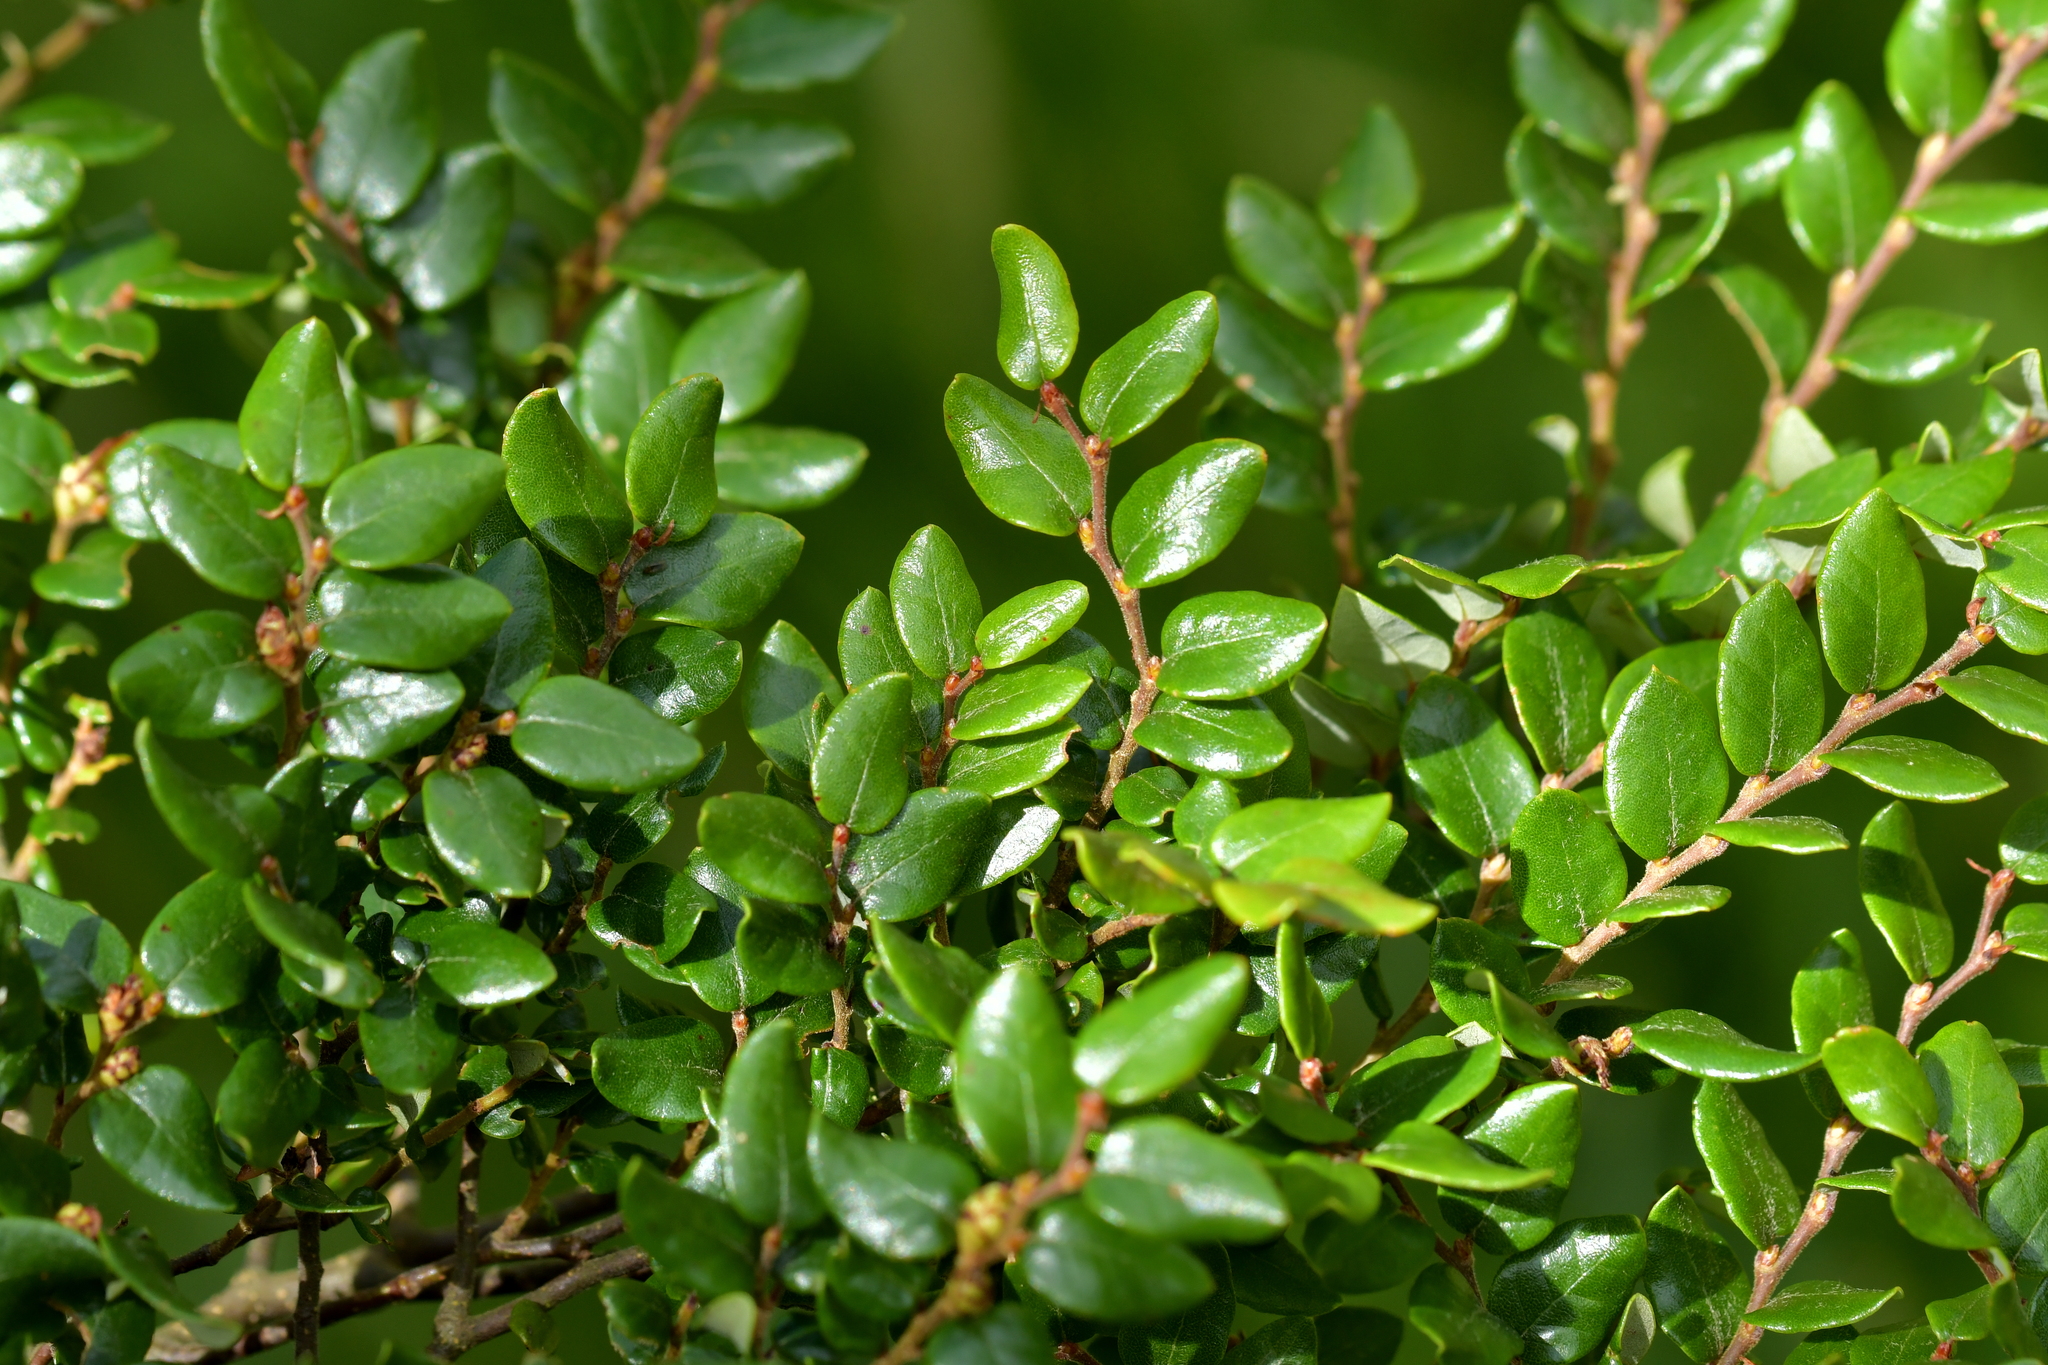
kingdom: Plantae
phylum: Tracheophyta
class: Magnoliopsida
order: Fagales
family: Nothofagaceae
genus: Nothofagus
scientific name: Nothofagus cliffortioides
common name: Mountain beech
